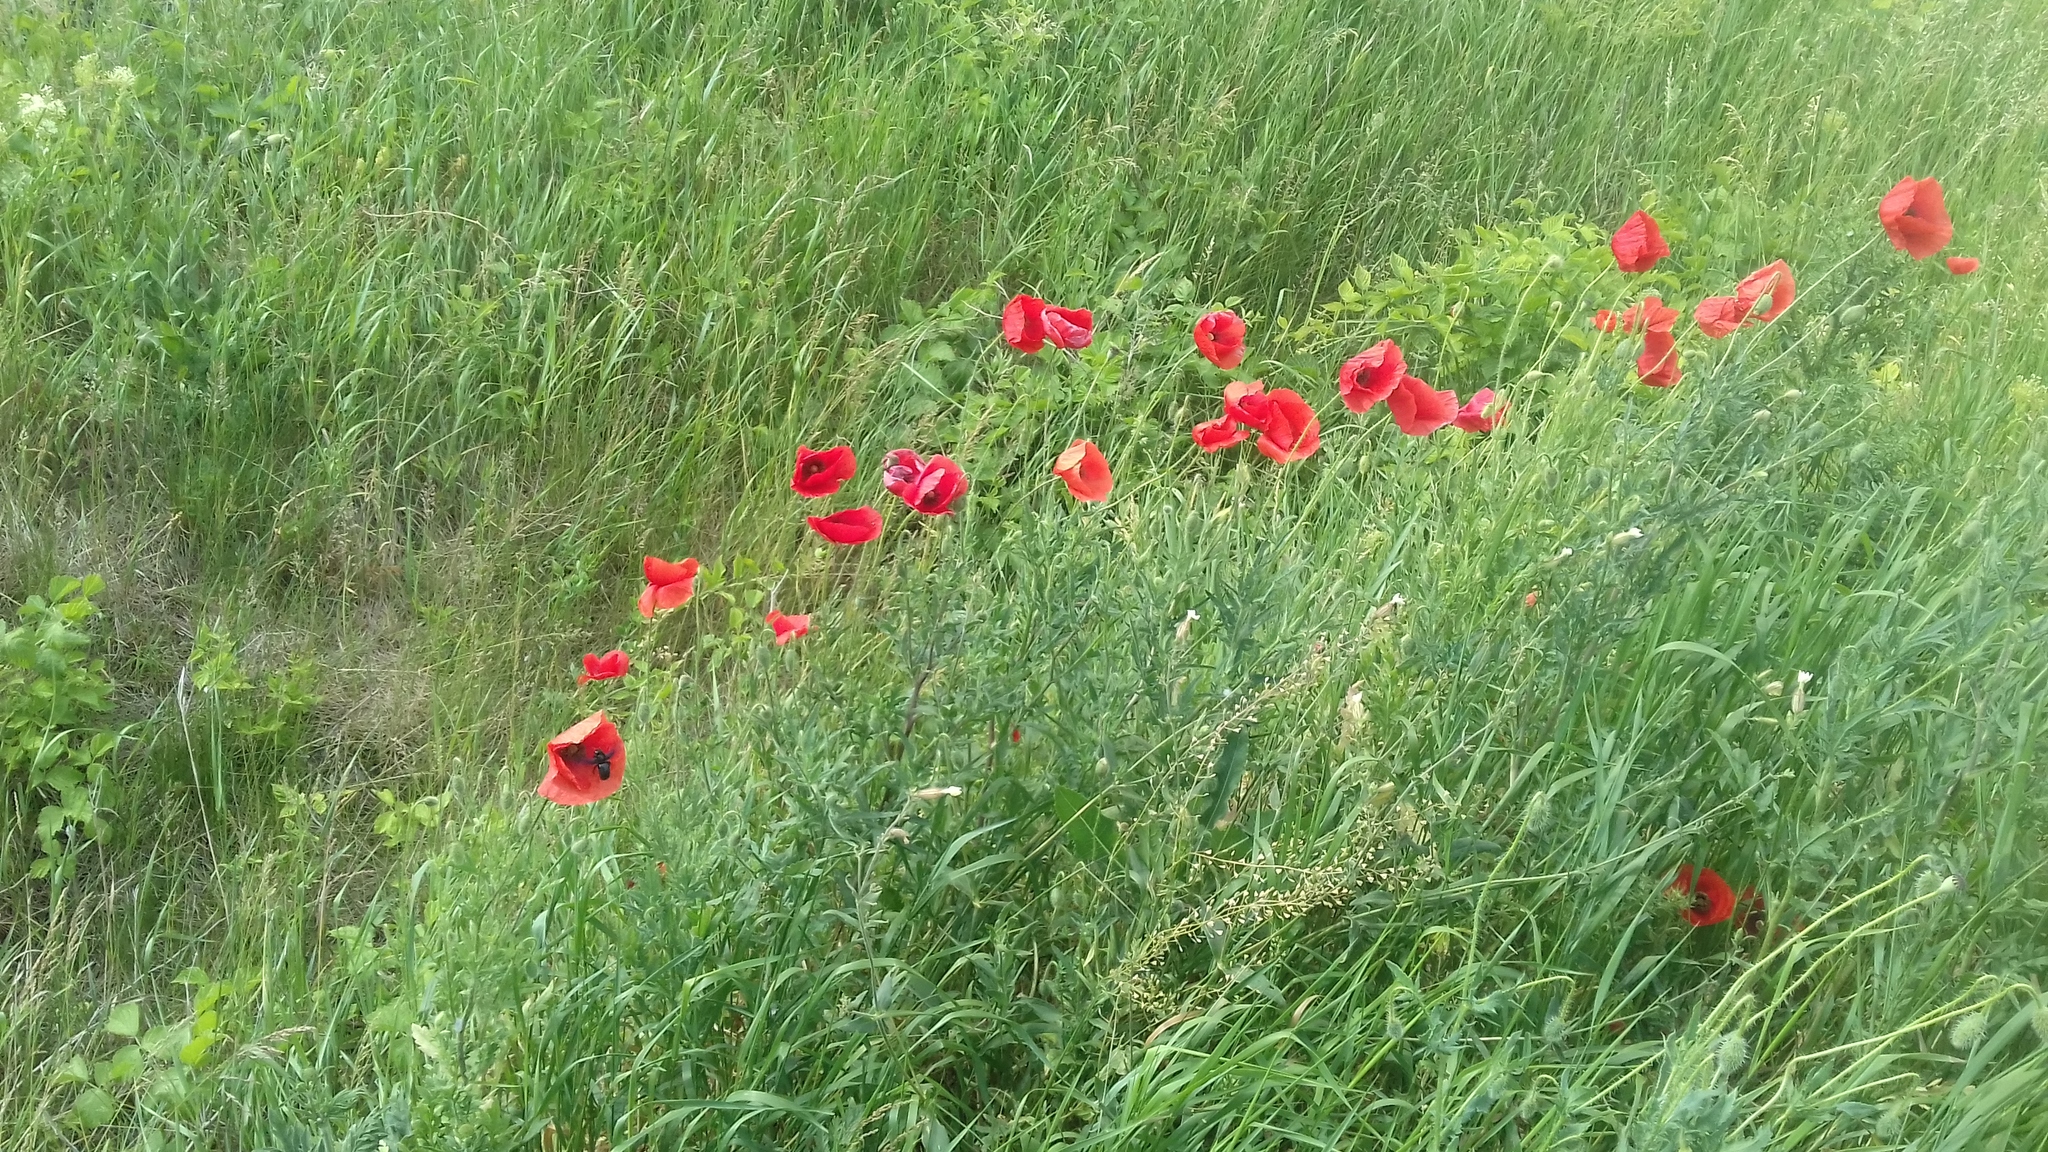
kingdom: Plantae
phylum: Tracheophyta
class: Magnoliopsida
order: Ranunculales
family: Papaveraceae
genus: Papaver
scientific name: Papaver rhoeas
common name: Corn poppy
